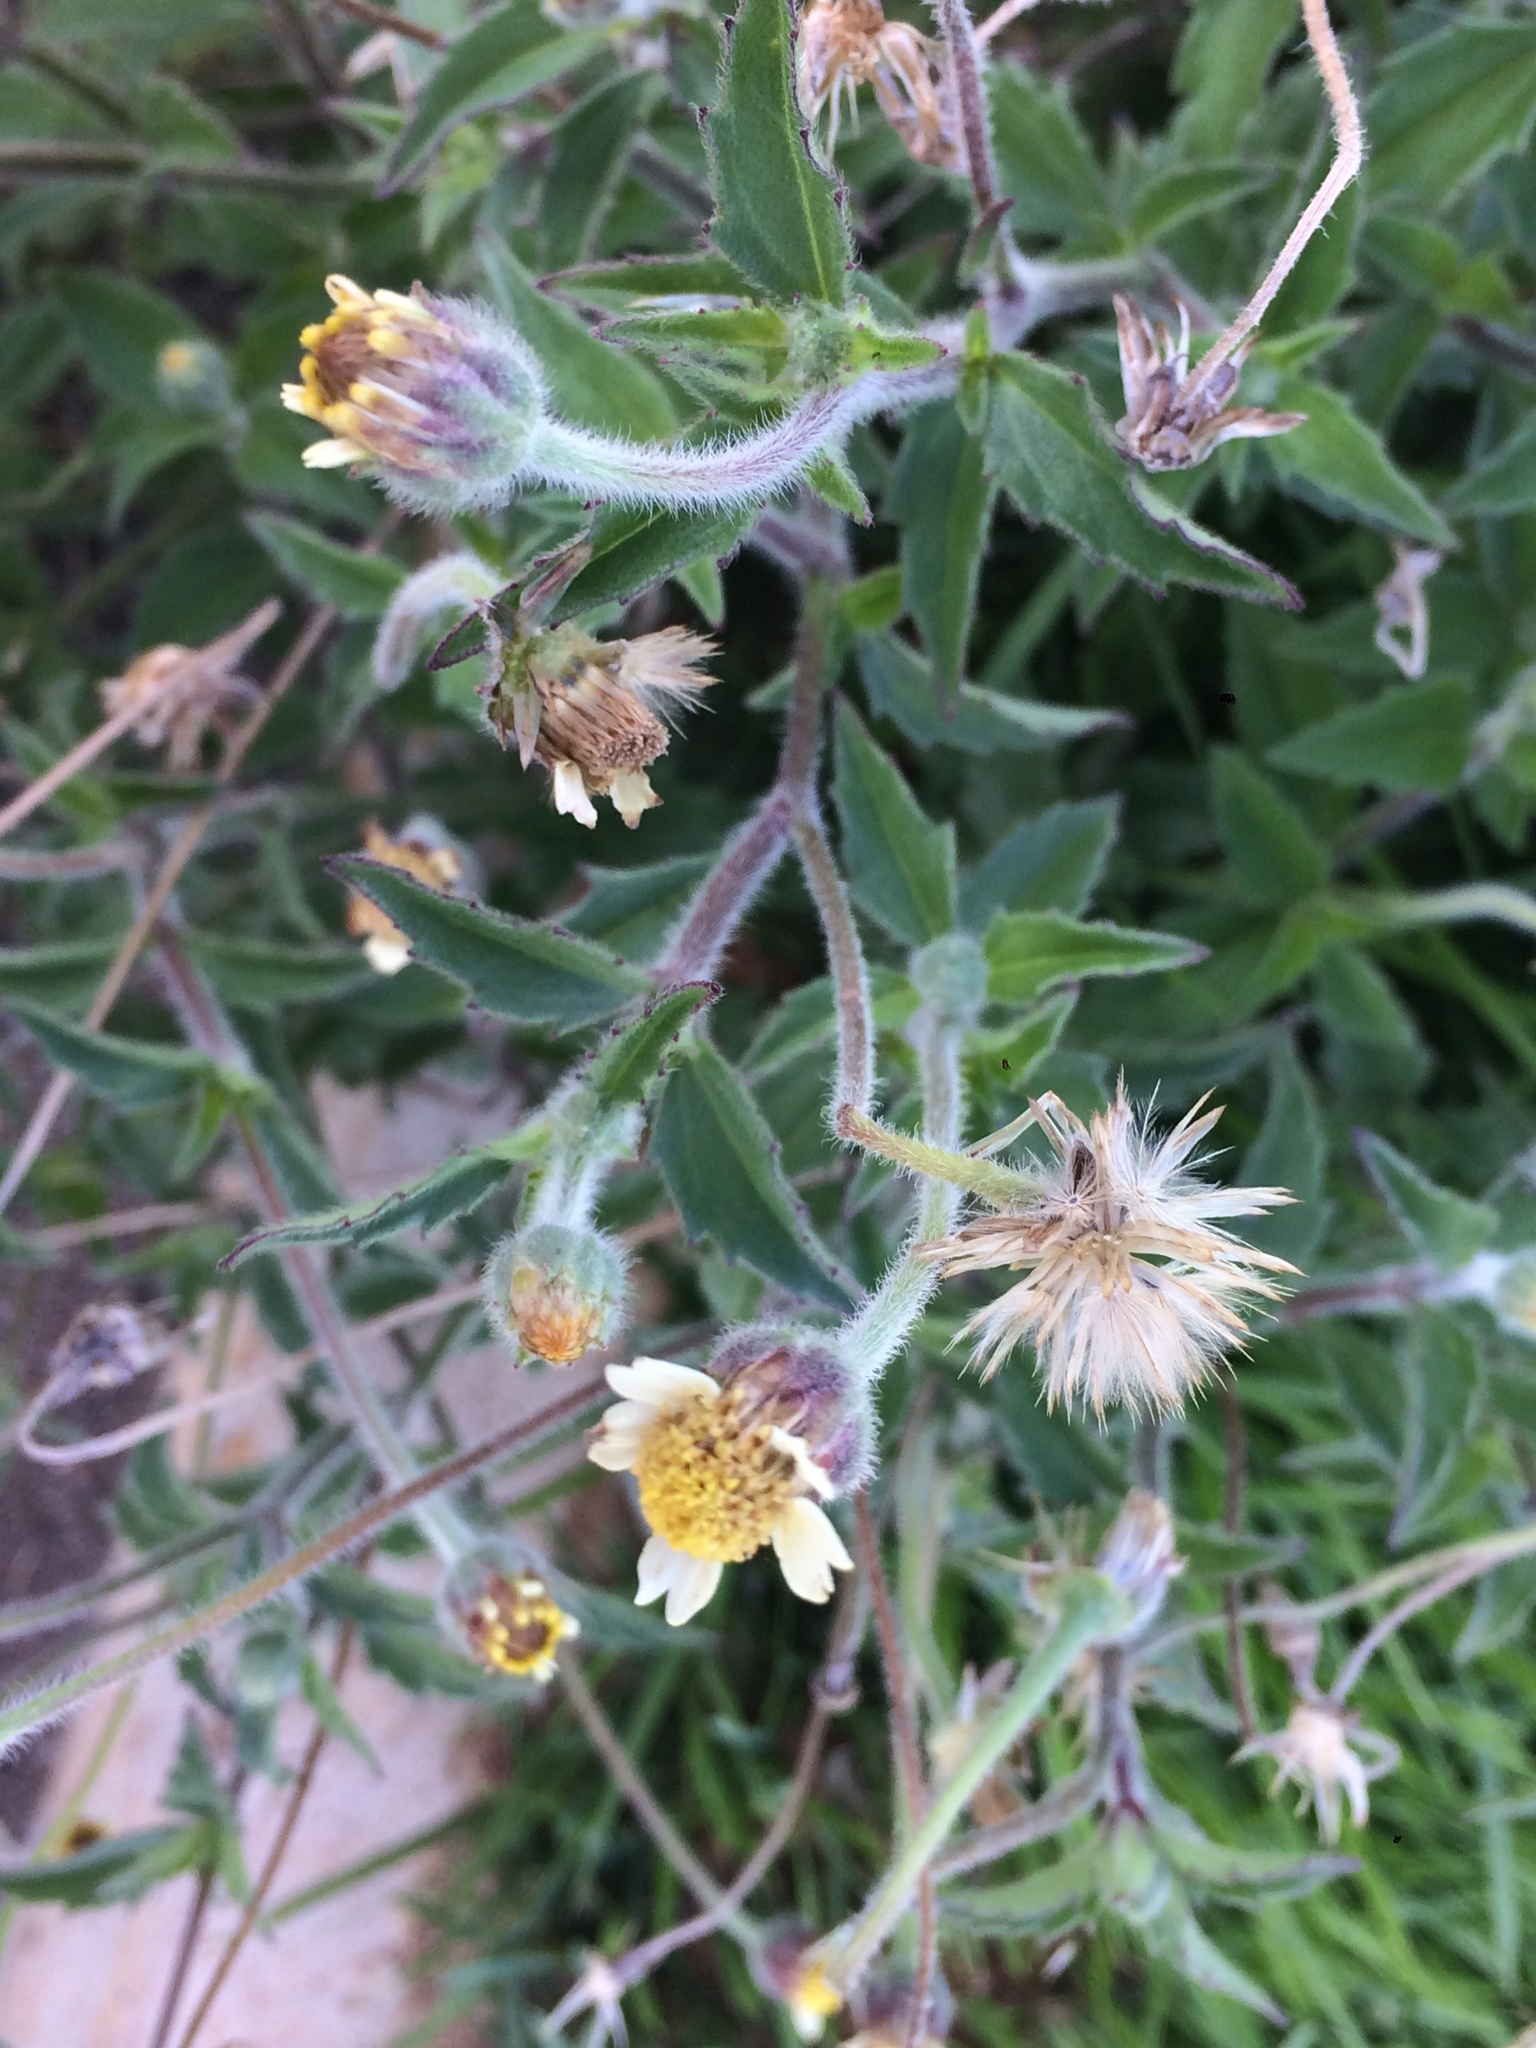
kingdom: Plantae
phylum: Tracheophyta
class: Magnoliopsida
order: Asterales
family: Asteraceae
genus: Tridax
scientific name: Tridax procumbens
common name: Coatbuttons
